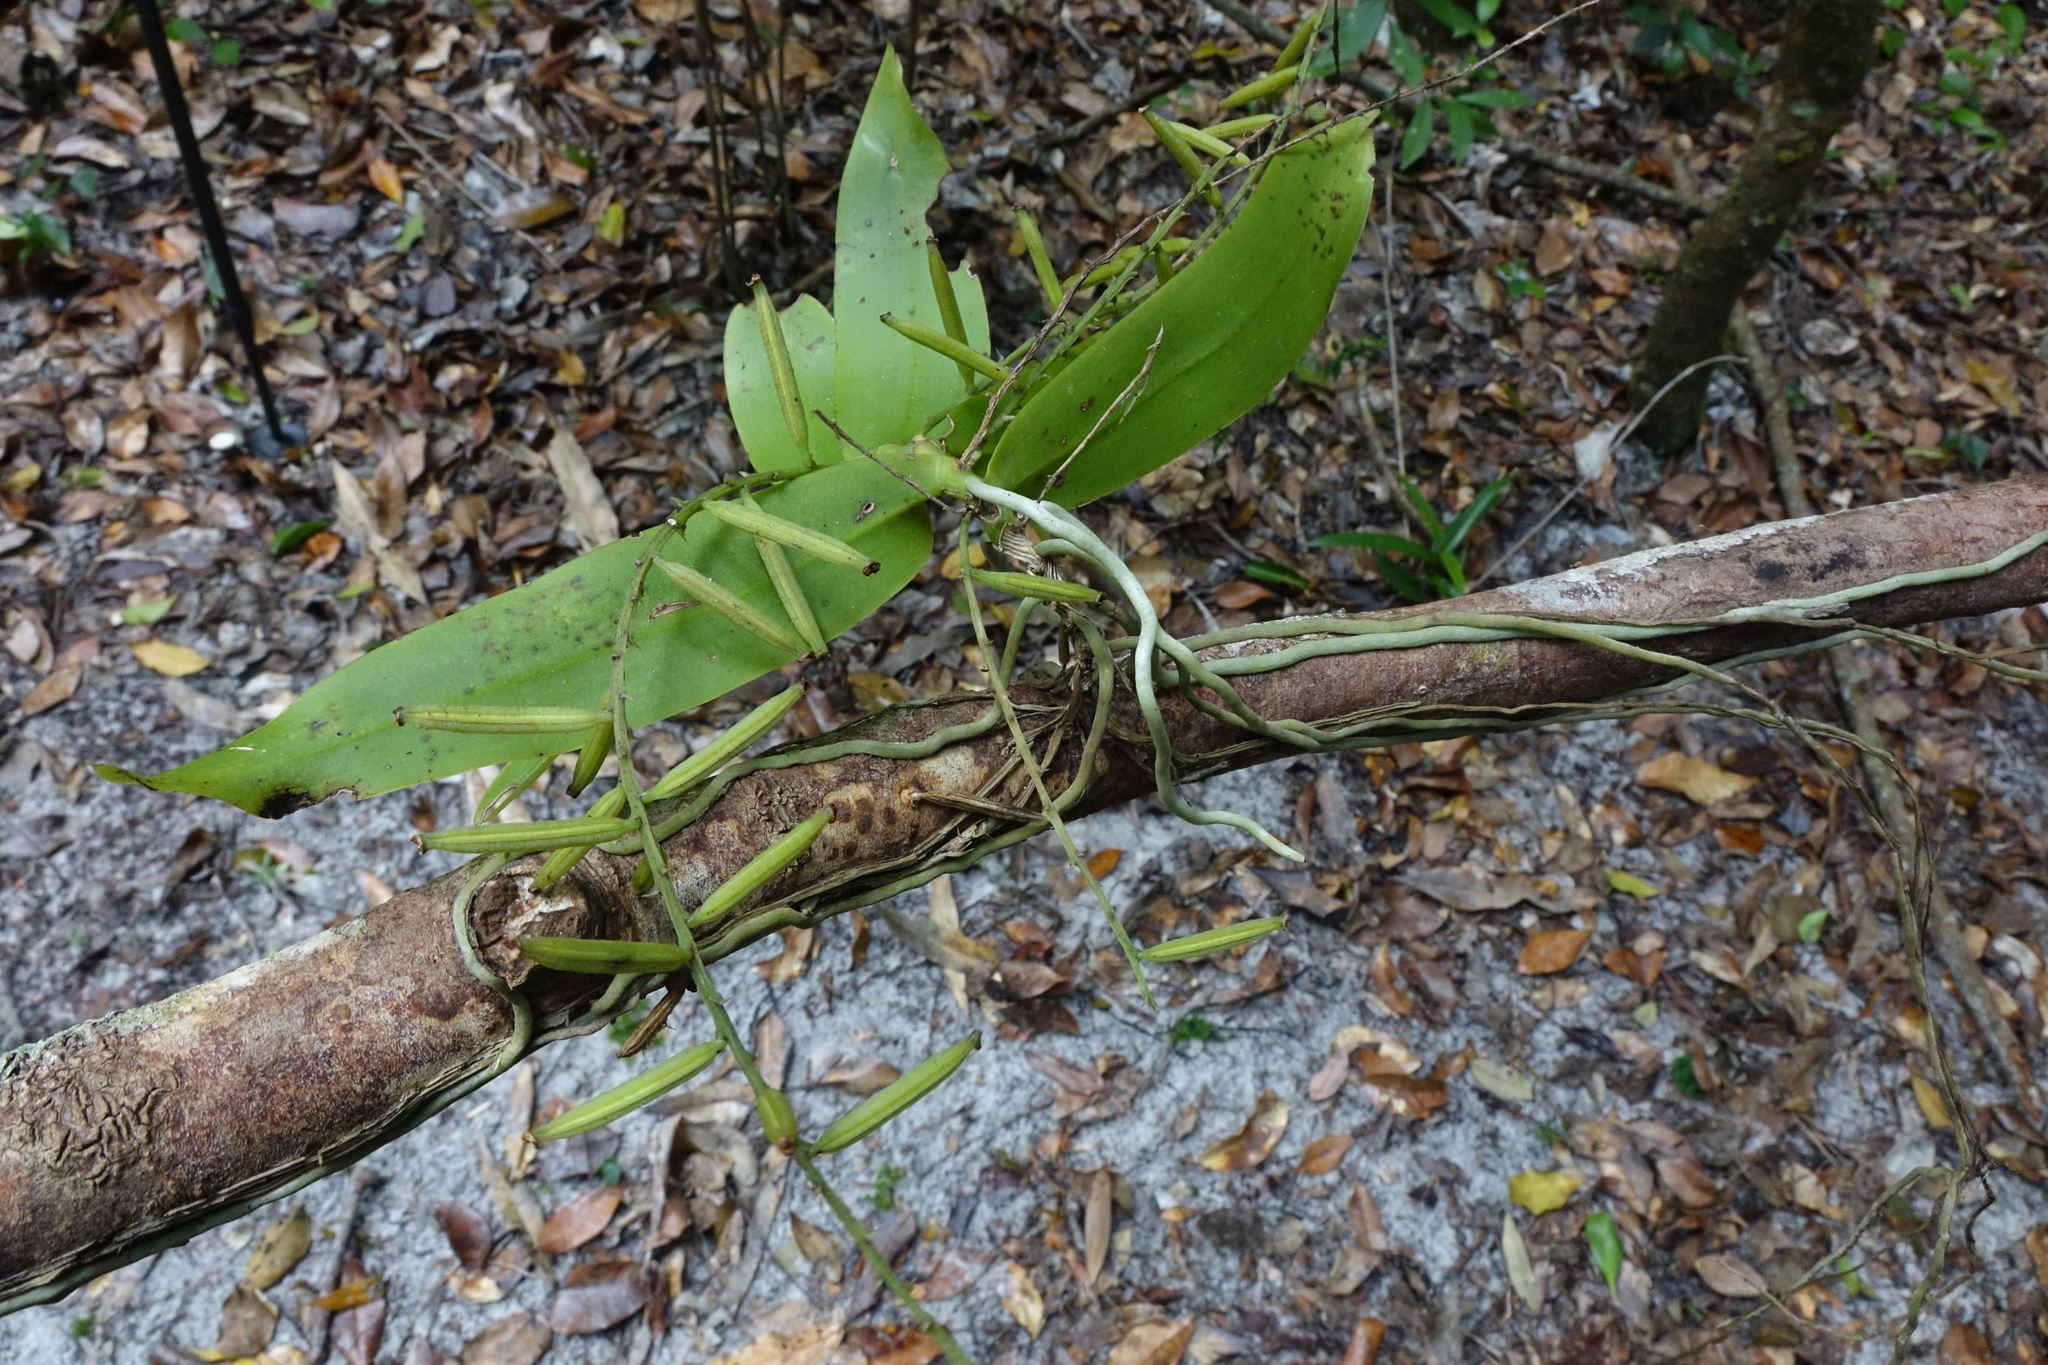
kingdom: Plantae
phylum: Tracheophyta
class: Liliopsida
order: Asparagales
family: Orchidaceae
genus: Peristeranthus
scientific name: Peristeranthus hillii
